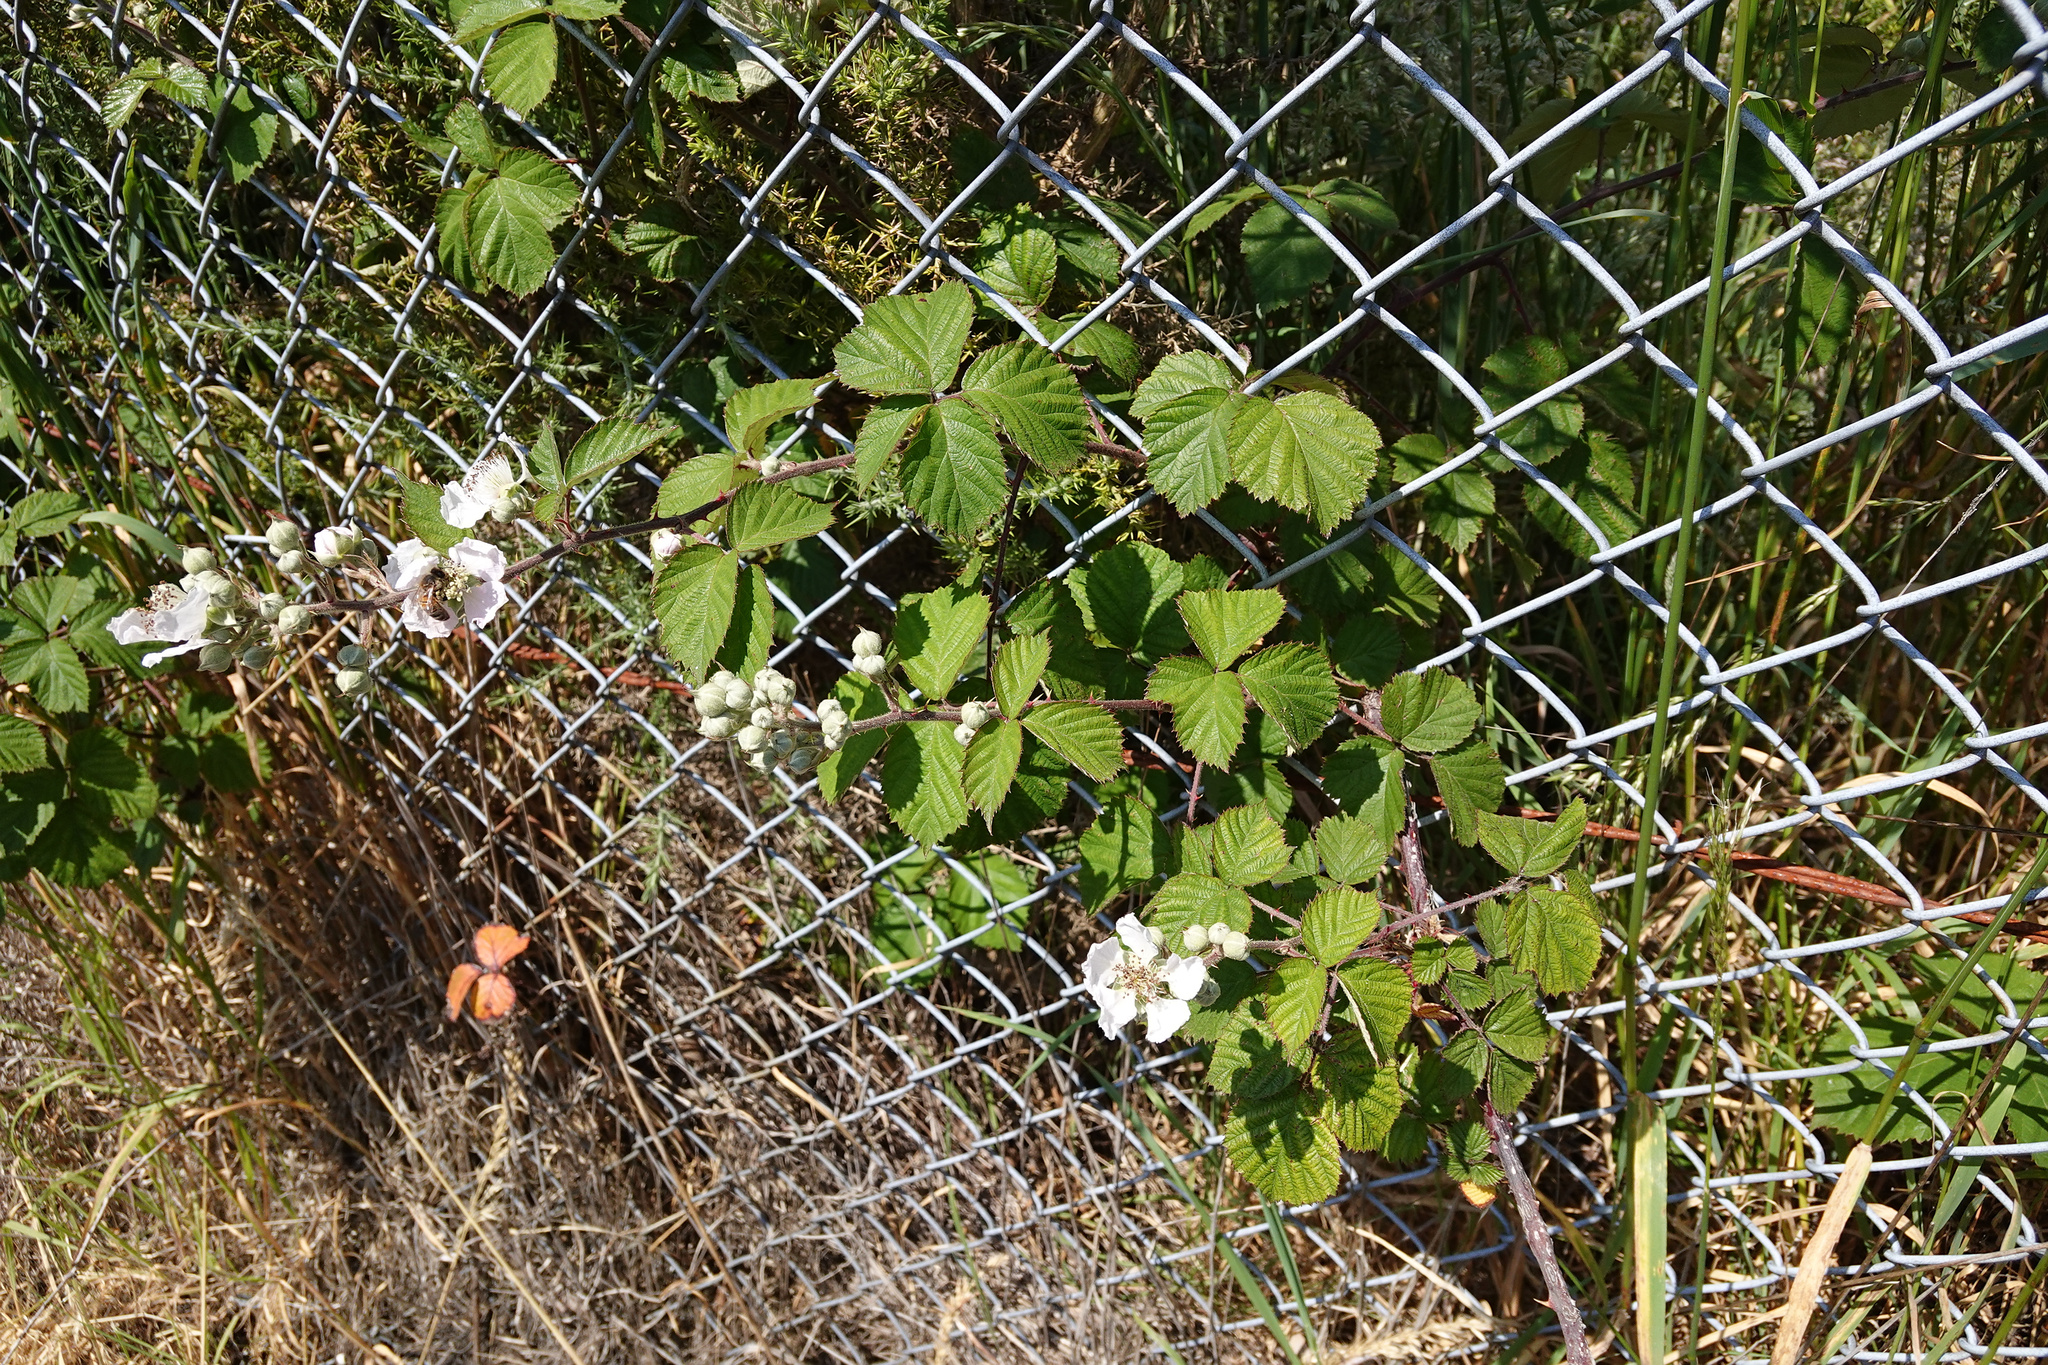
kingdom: Plantae
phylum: Tracheophyta
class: Magnoliopsida
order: Rosales
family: Rosaceae
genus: Rubus
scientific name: Rubus
